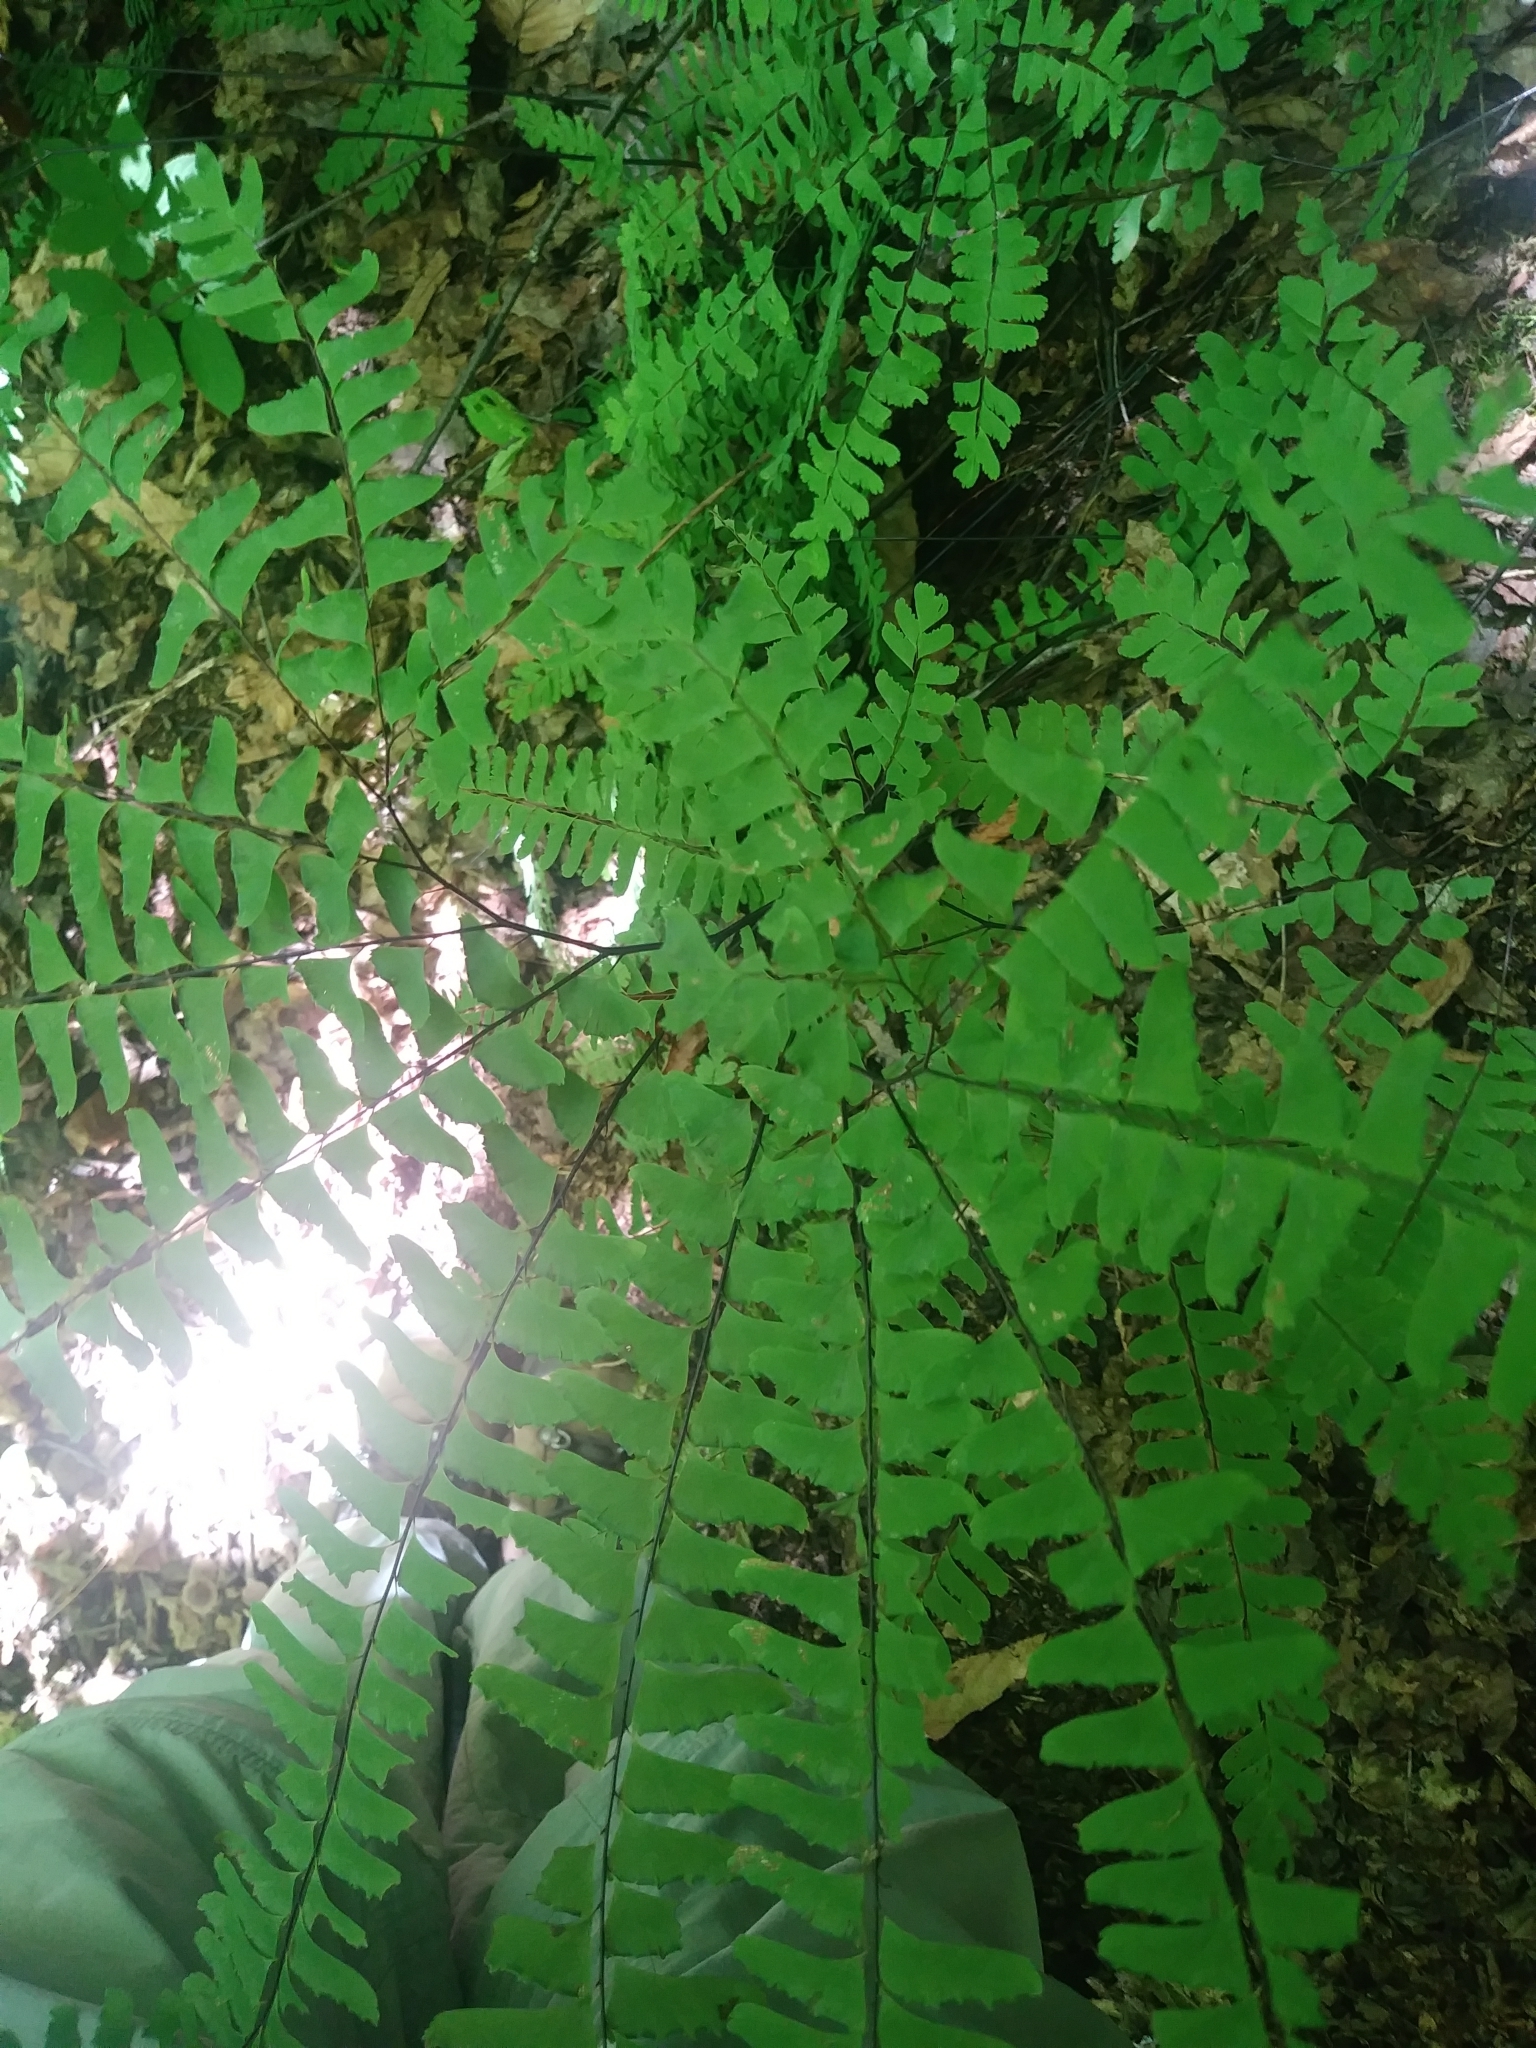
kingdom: Plantae
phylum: Tracheophyta
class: Polypodiopsida
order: Polypodiales
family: Pteridaceae
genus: Adiantum
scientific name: Adiantum viridimontanum
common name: Green mountain maidenhair
